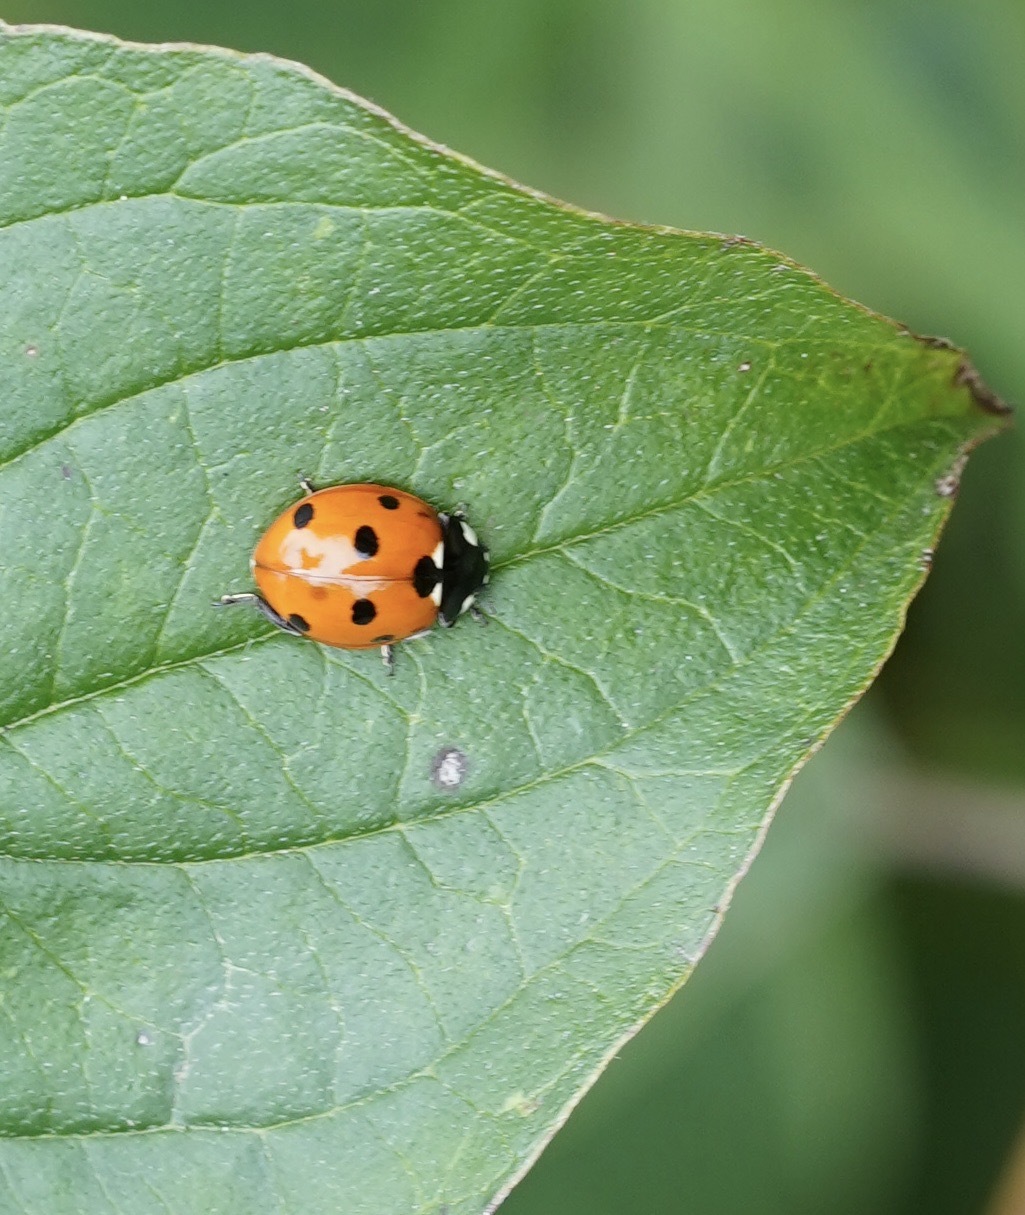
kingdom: Animalia
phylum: Arthropoda
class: Insecta
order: Coleoptera
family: Coccinellidae
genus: Coccinella
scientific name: Coccinella septempunctata
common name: Sevenspotted lady beetle
